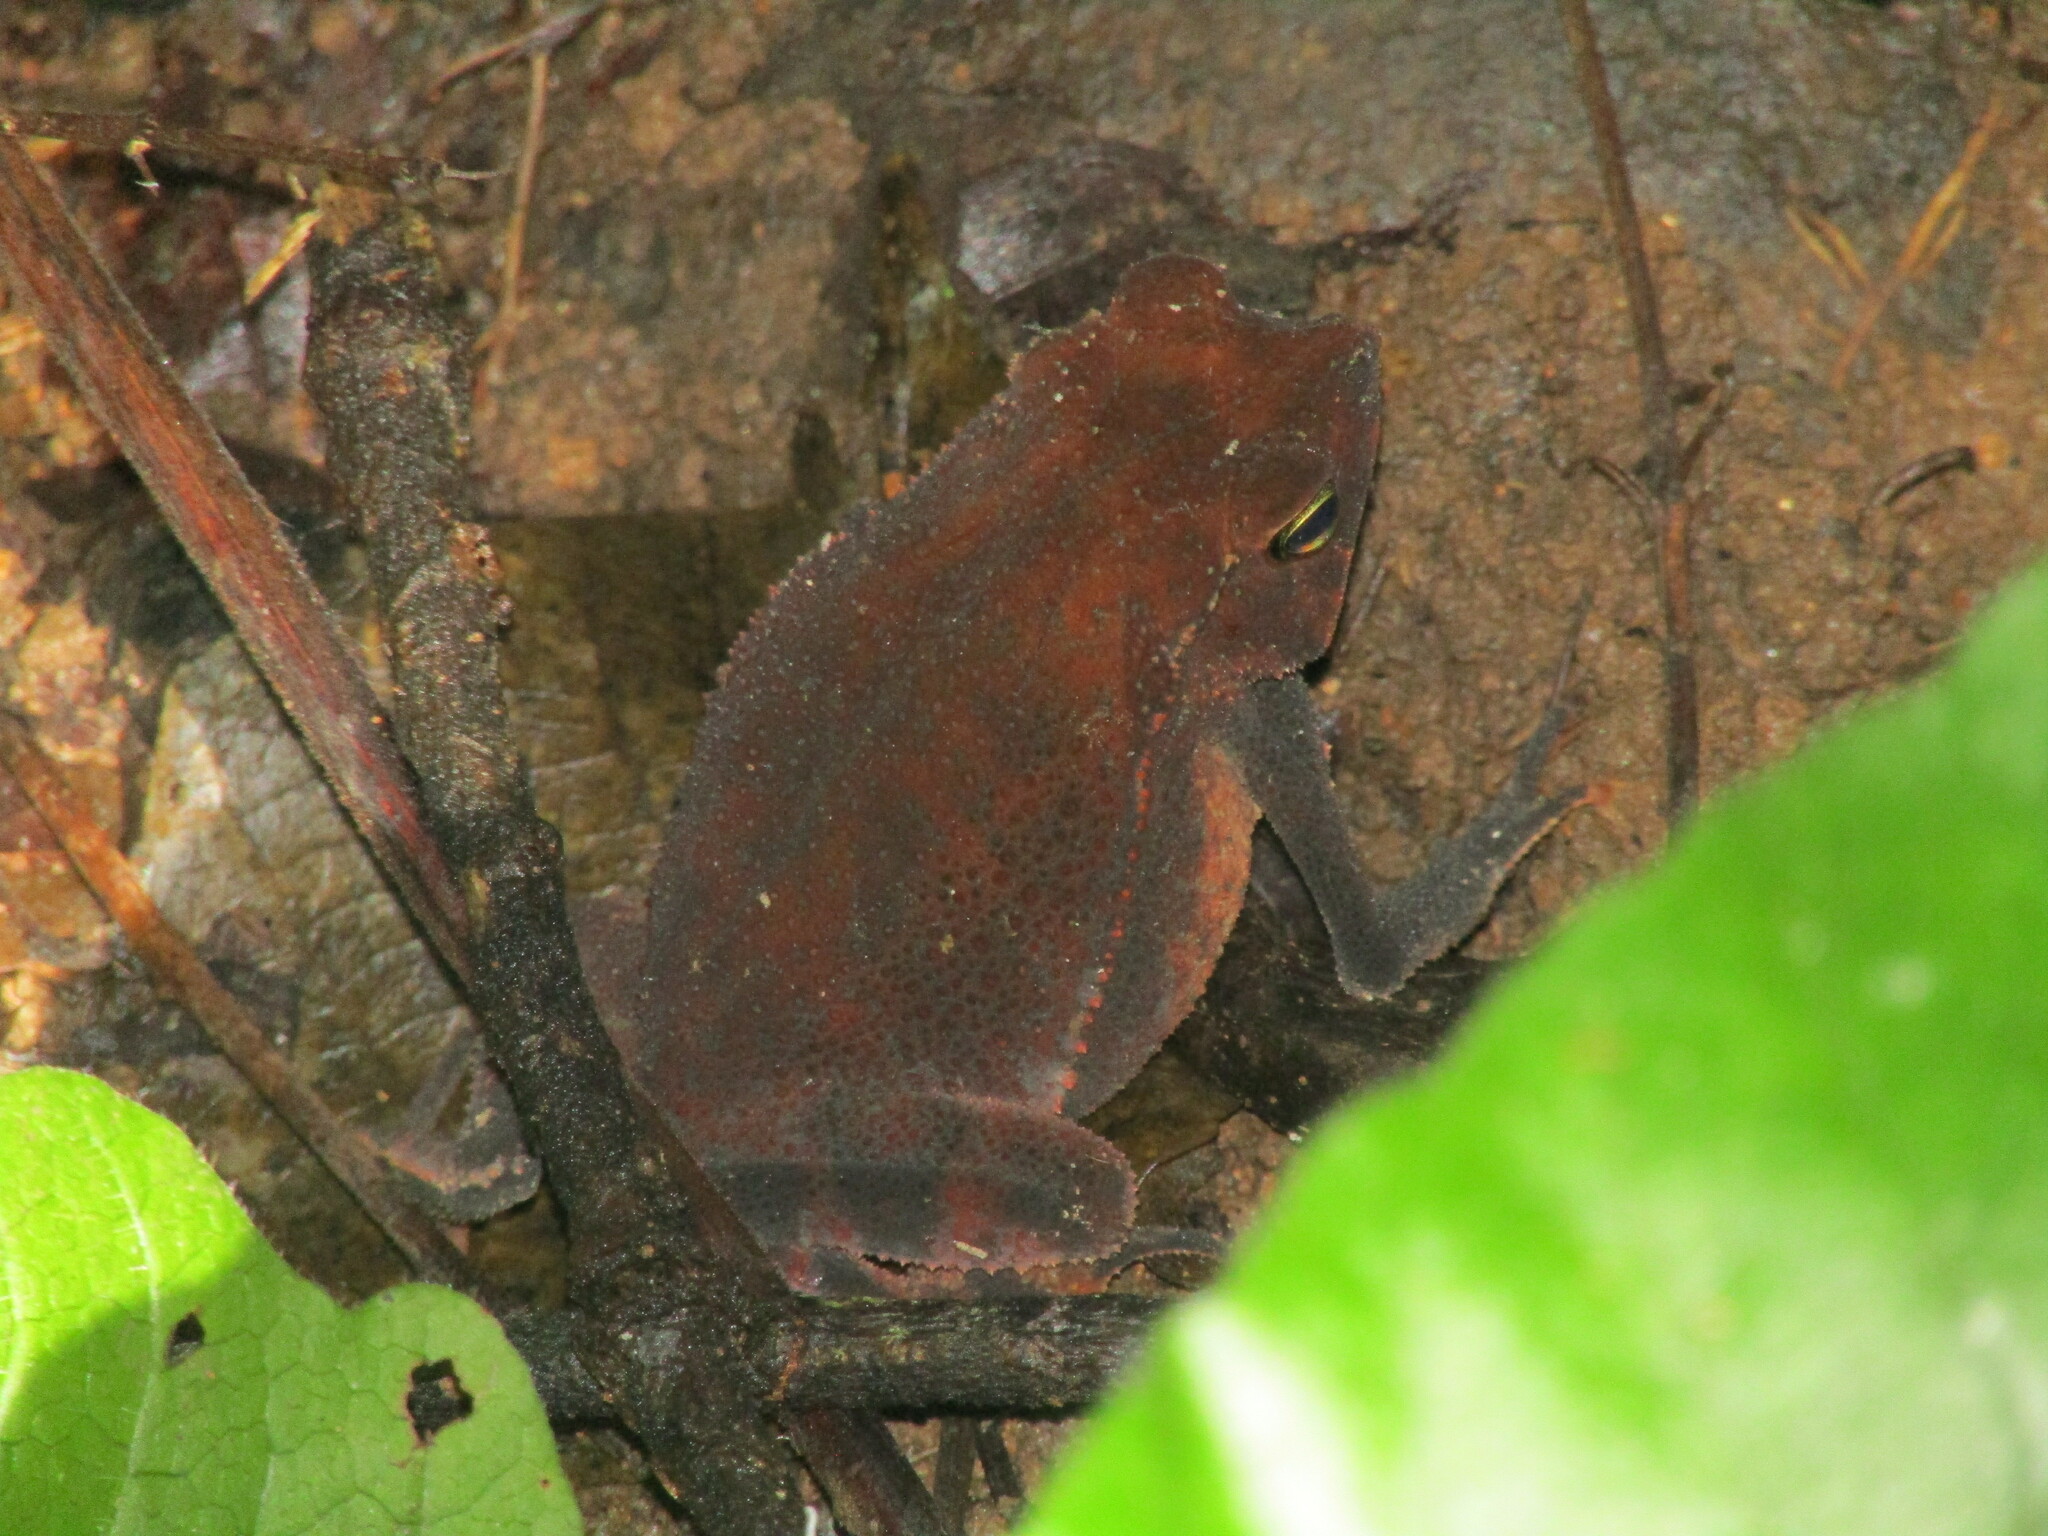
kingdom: Animalia
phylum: Chordata
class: Amphibia
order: Anura
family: Bufonidae
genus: Rhinella
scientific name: Rhinella alata
